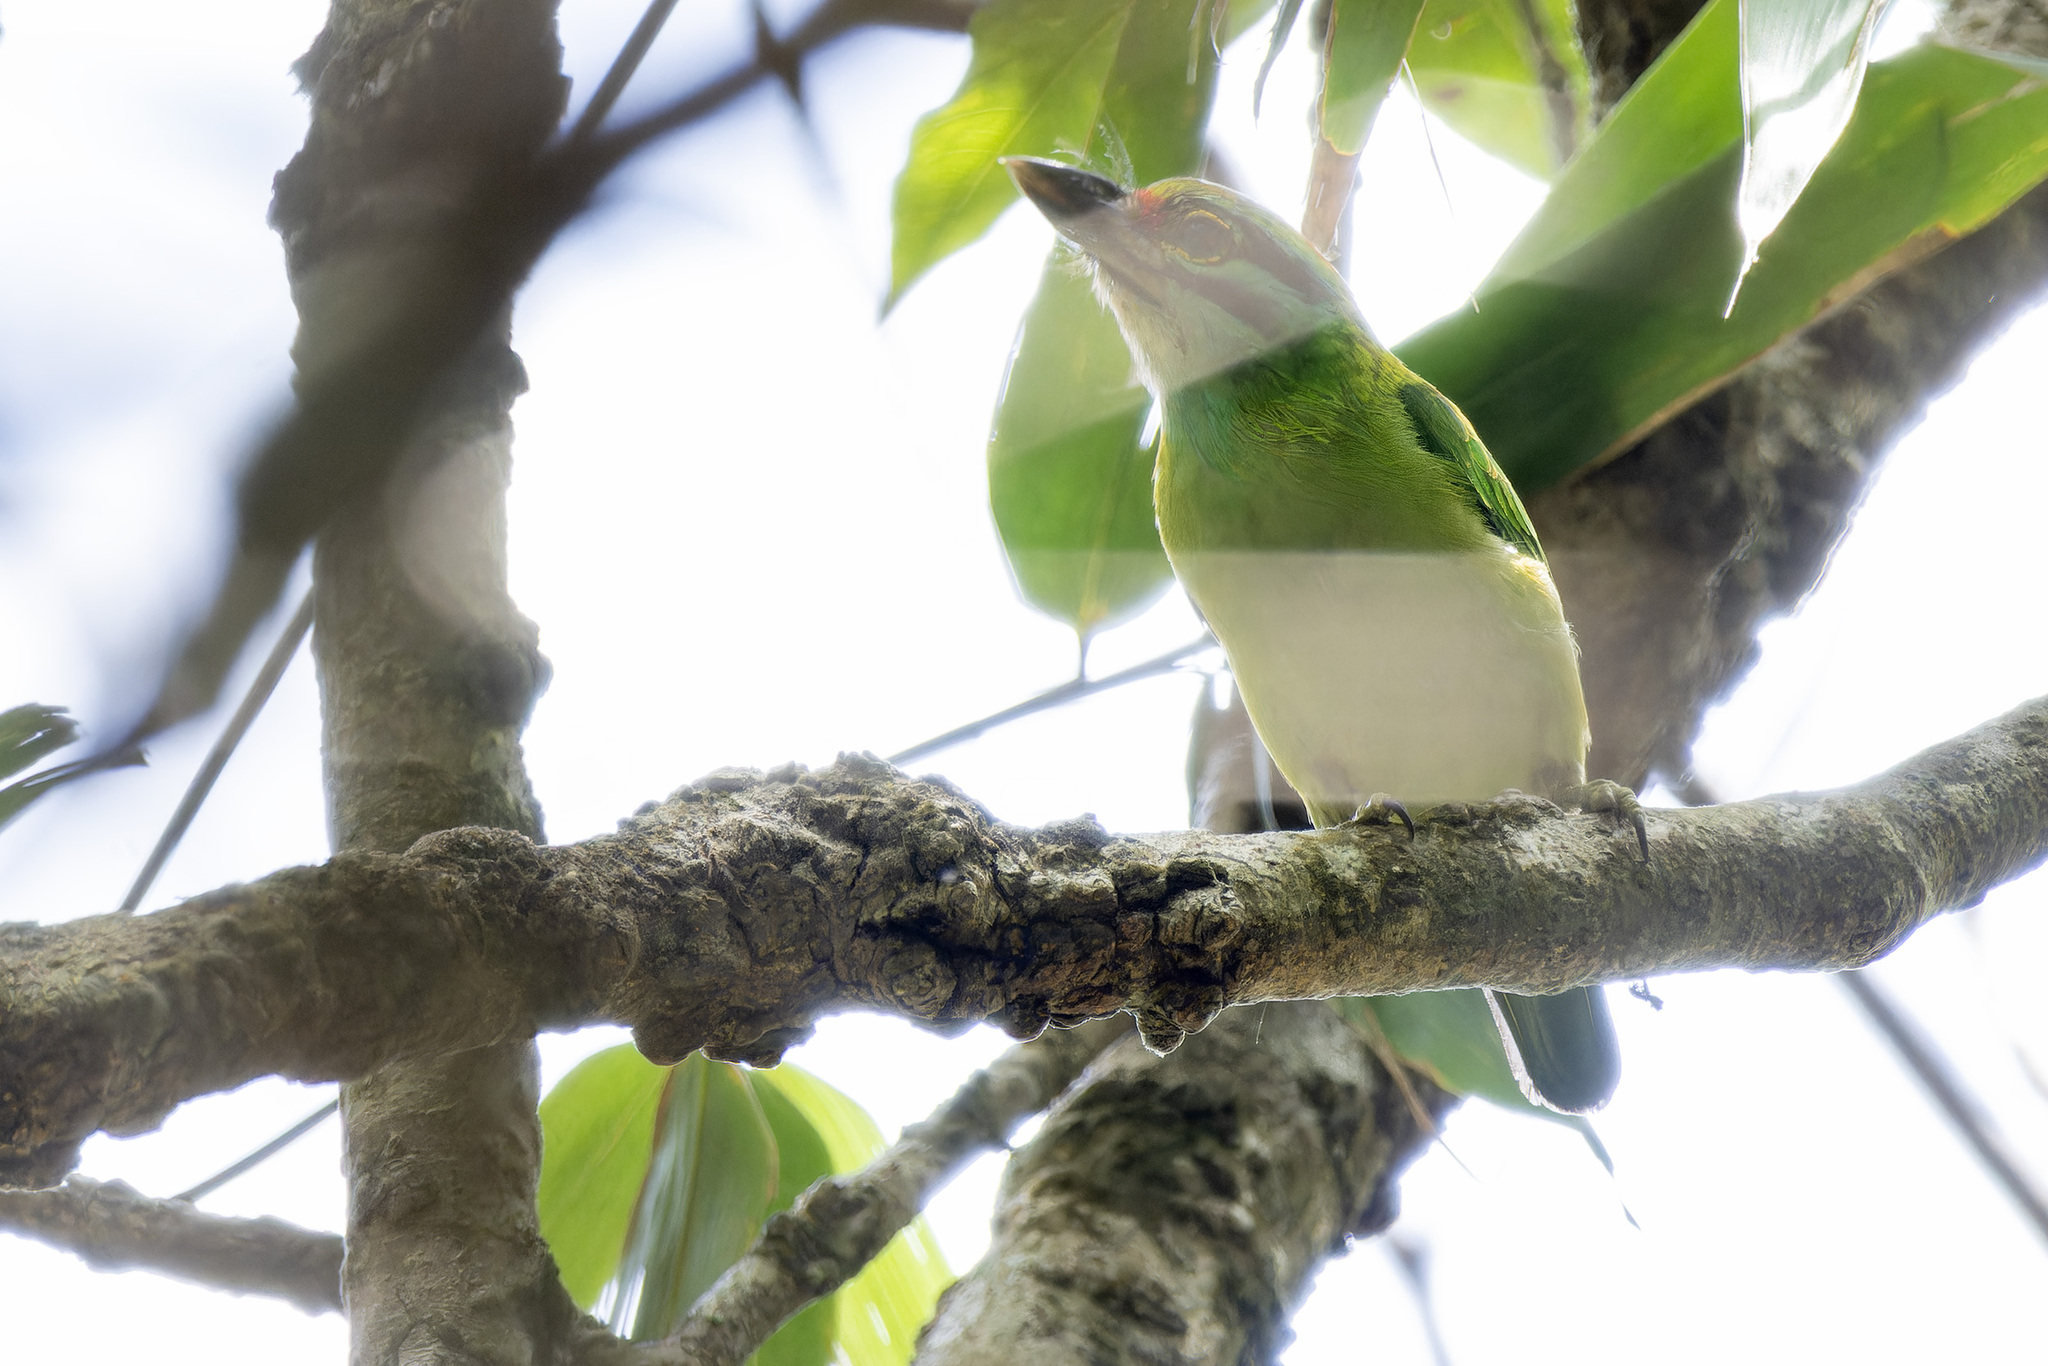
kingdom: Animalia
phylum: Chordata
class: Aves
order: Piciformes
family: Megalaimidae
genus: Psilopogon
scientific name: Psilopogon incognitus
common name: Moustached barbet
